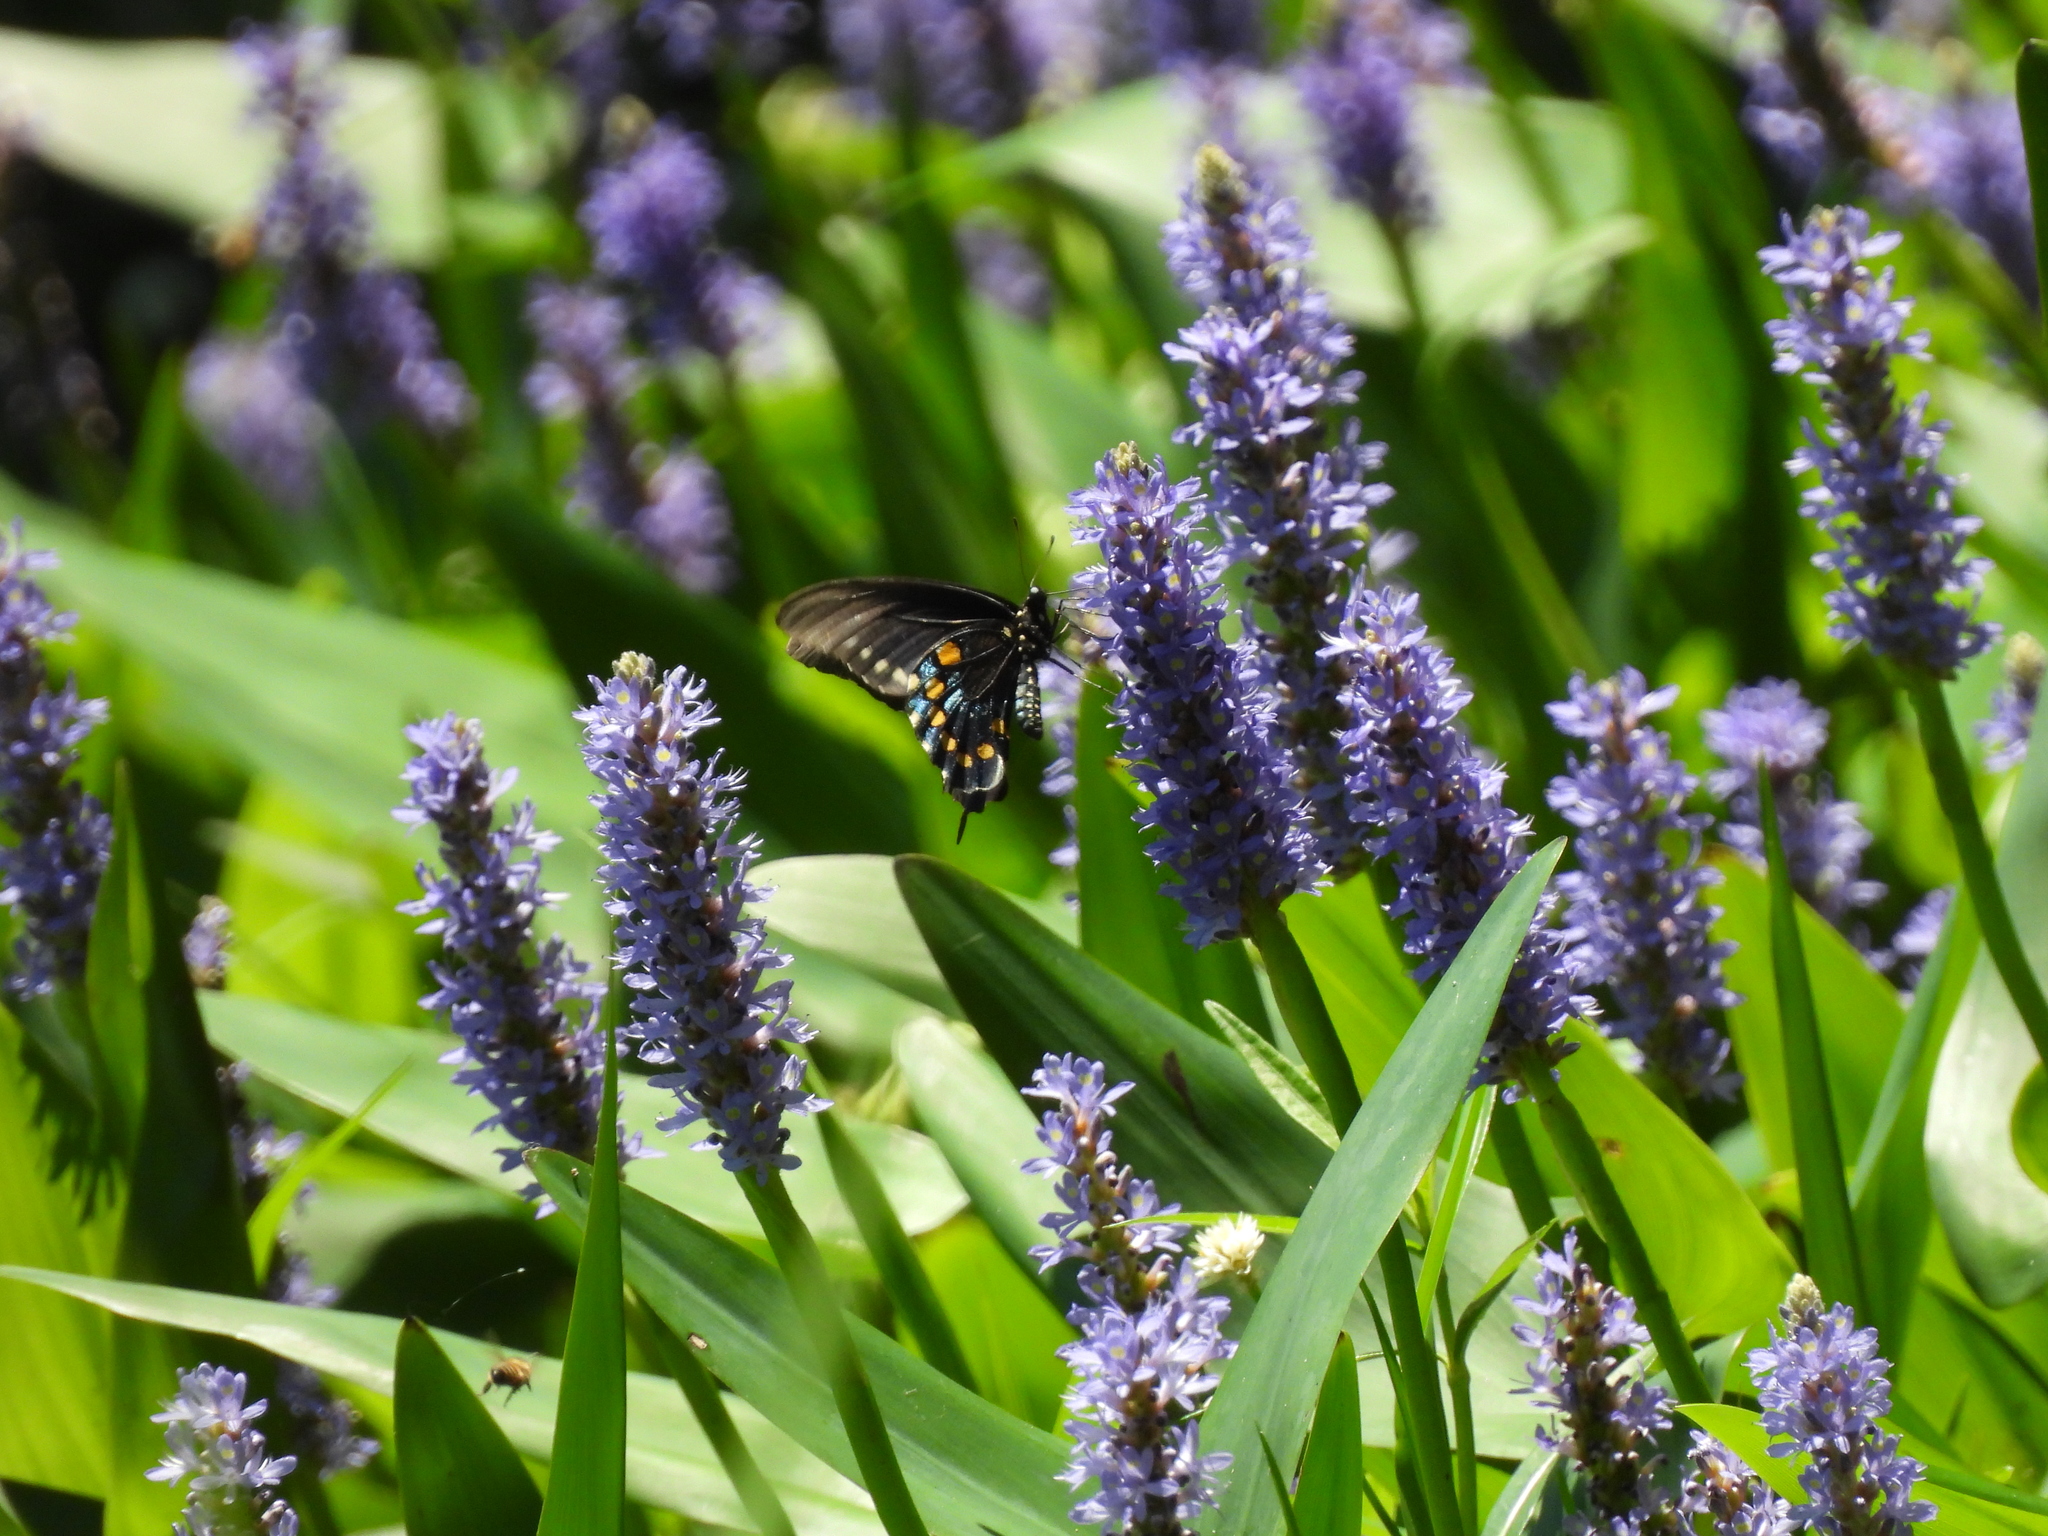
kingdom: Animalia
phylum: Arthropoda
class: Insecta
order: Lepidoptera
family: Papilionidae
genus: Battus
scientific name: Battus philenor
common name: Pipevine swallowtail
